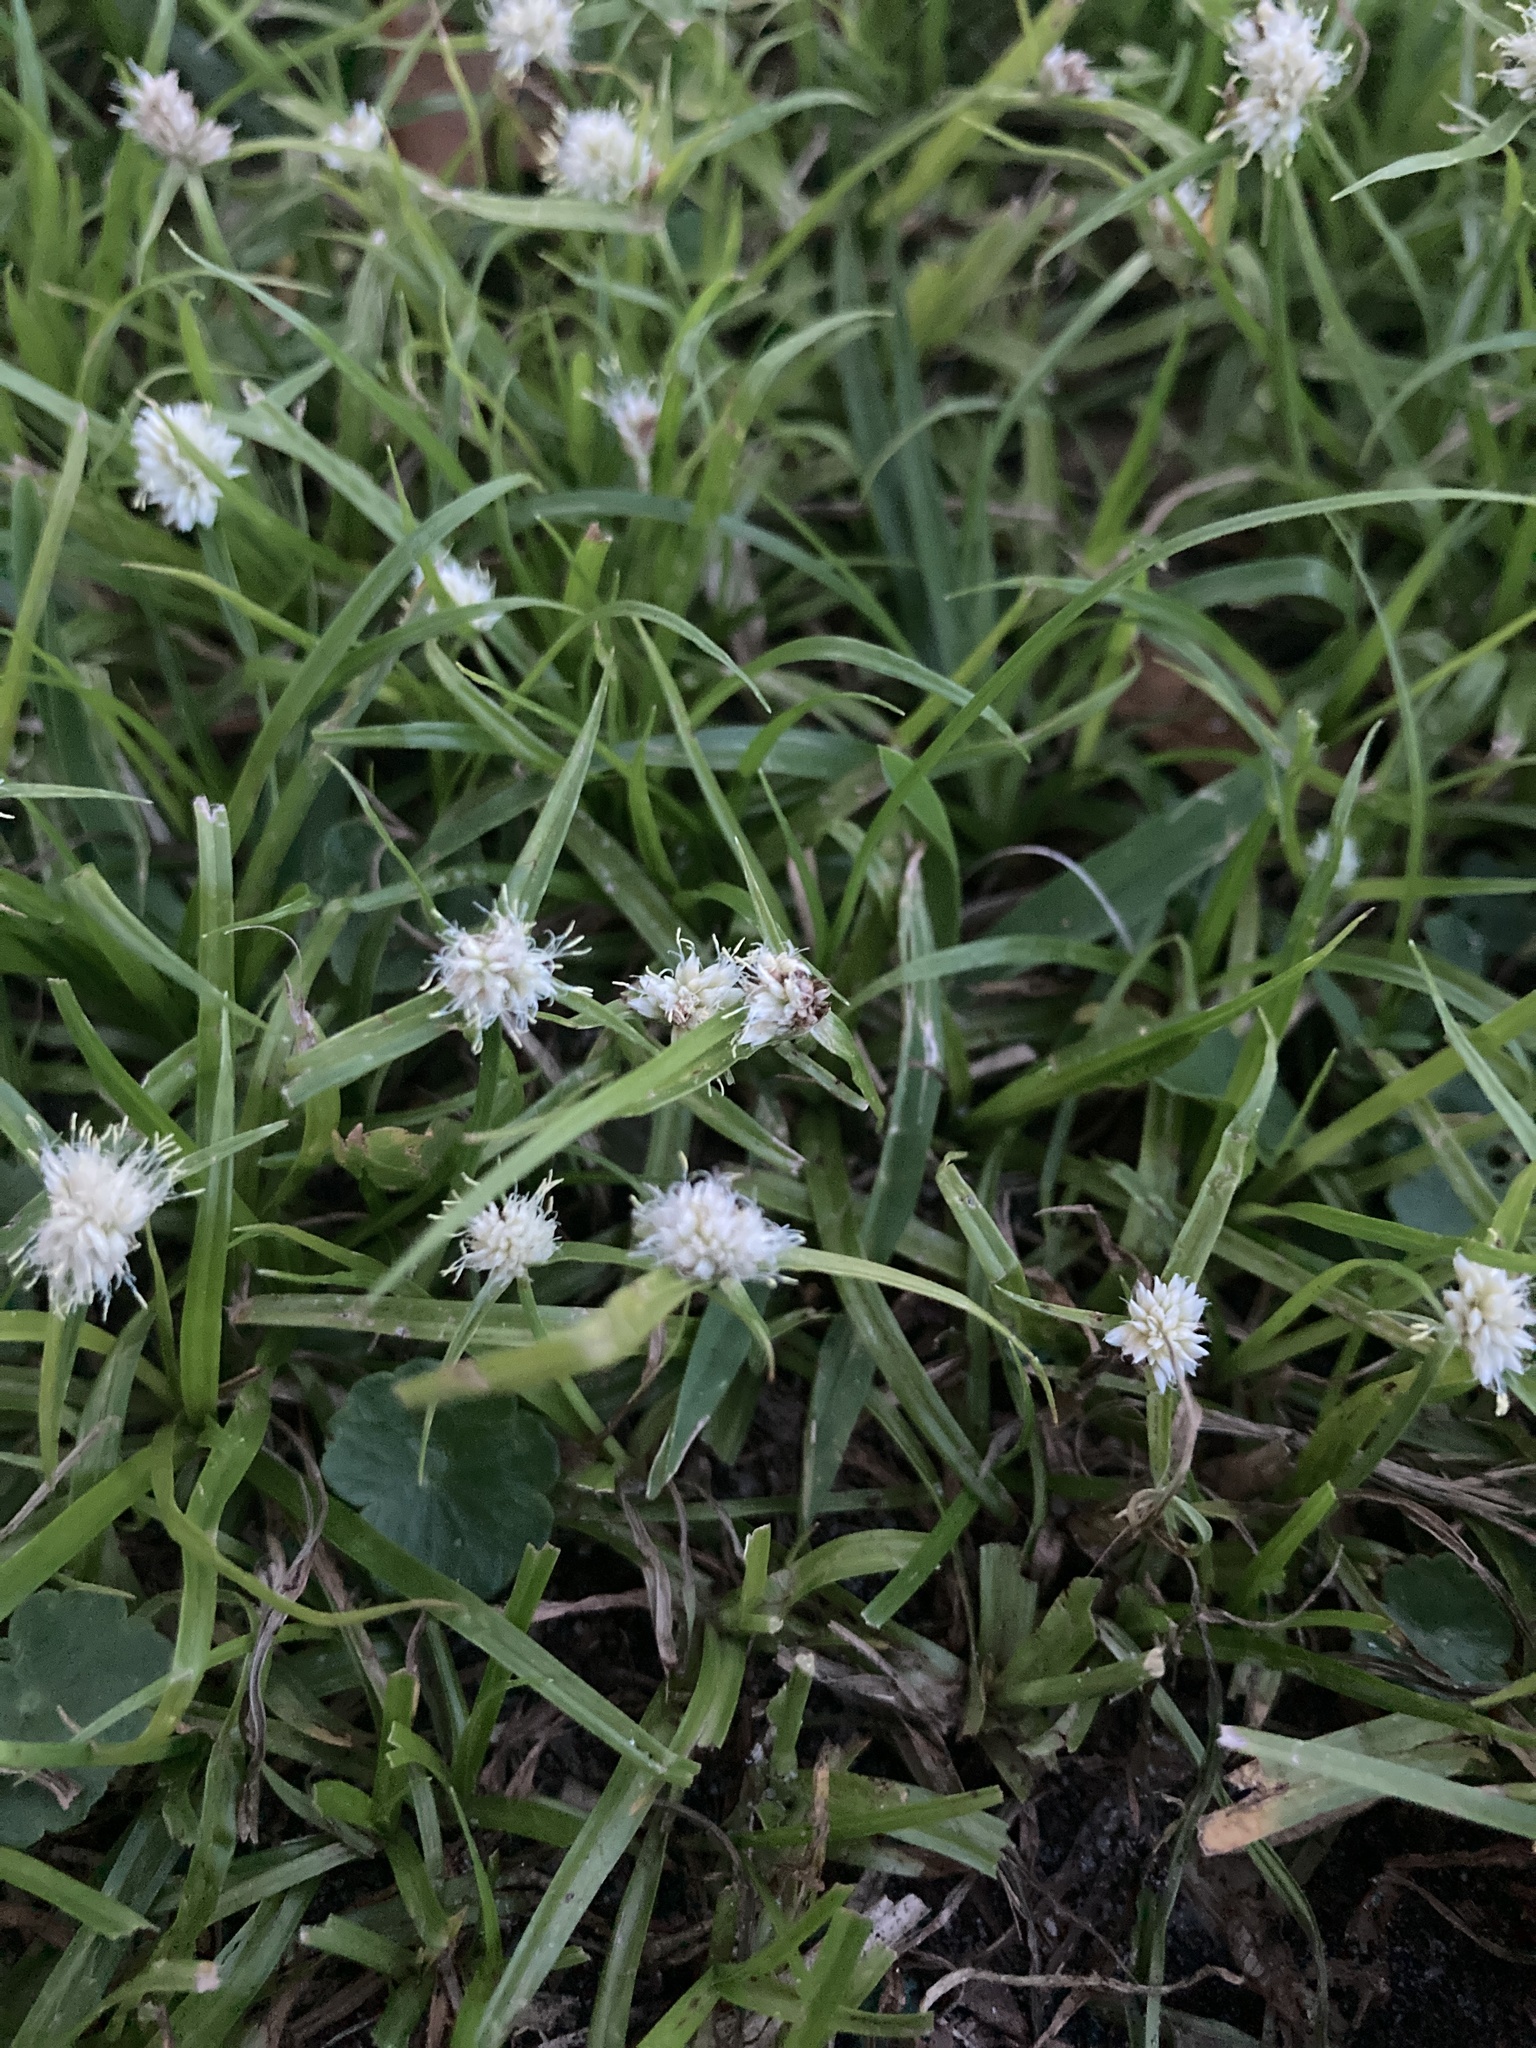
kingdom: Plantae
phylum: Tracheophyta
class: Liliopsida
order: Poales
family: Cyperaceae
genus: Cyperus
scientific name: Cyperus richardii
